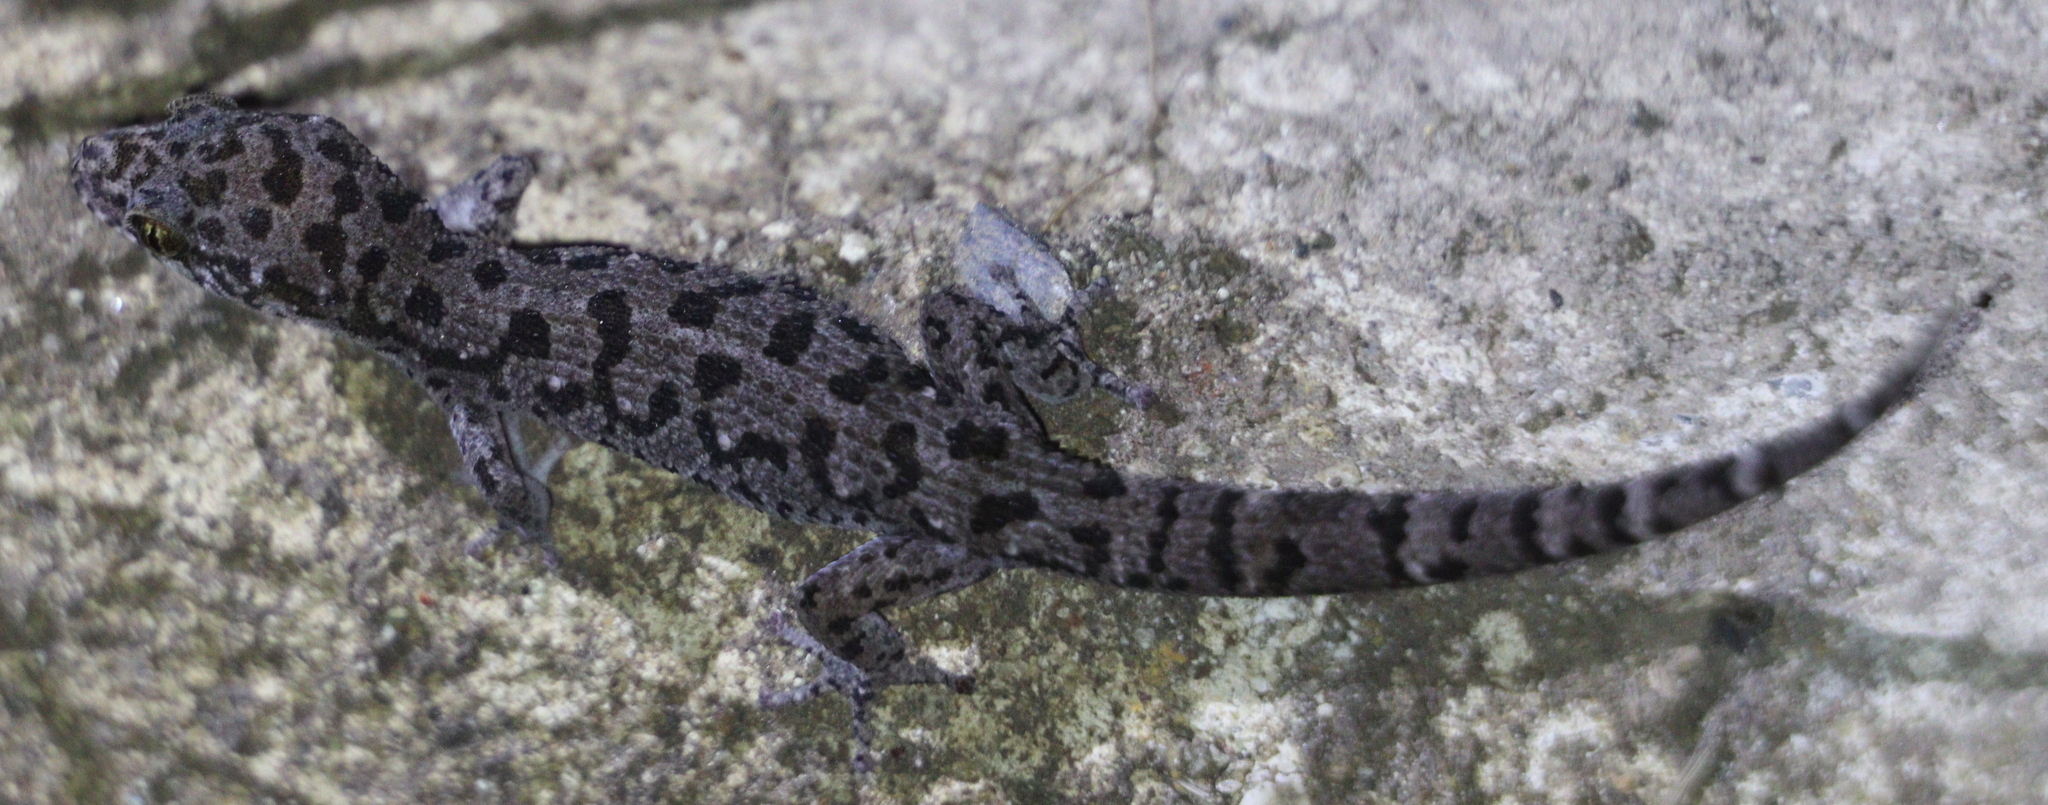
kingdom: Animalia
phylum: Chordata
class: Squamata
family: Gekkonidae
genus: Dixonius
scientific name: Dixonius siamensis
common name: Siamese leaf-toed gecko
